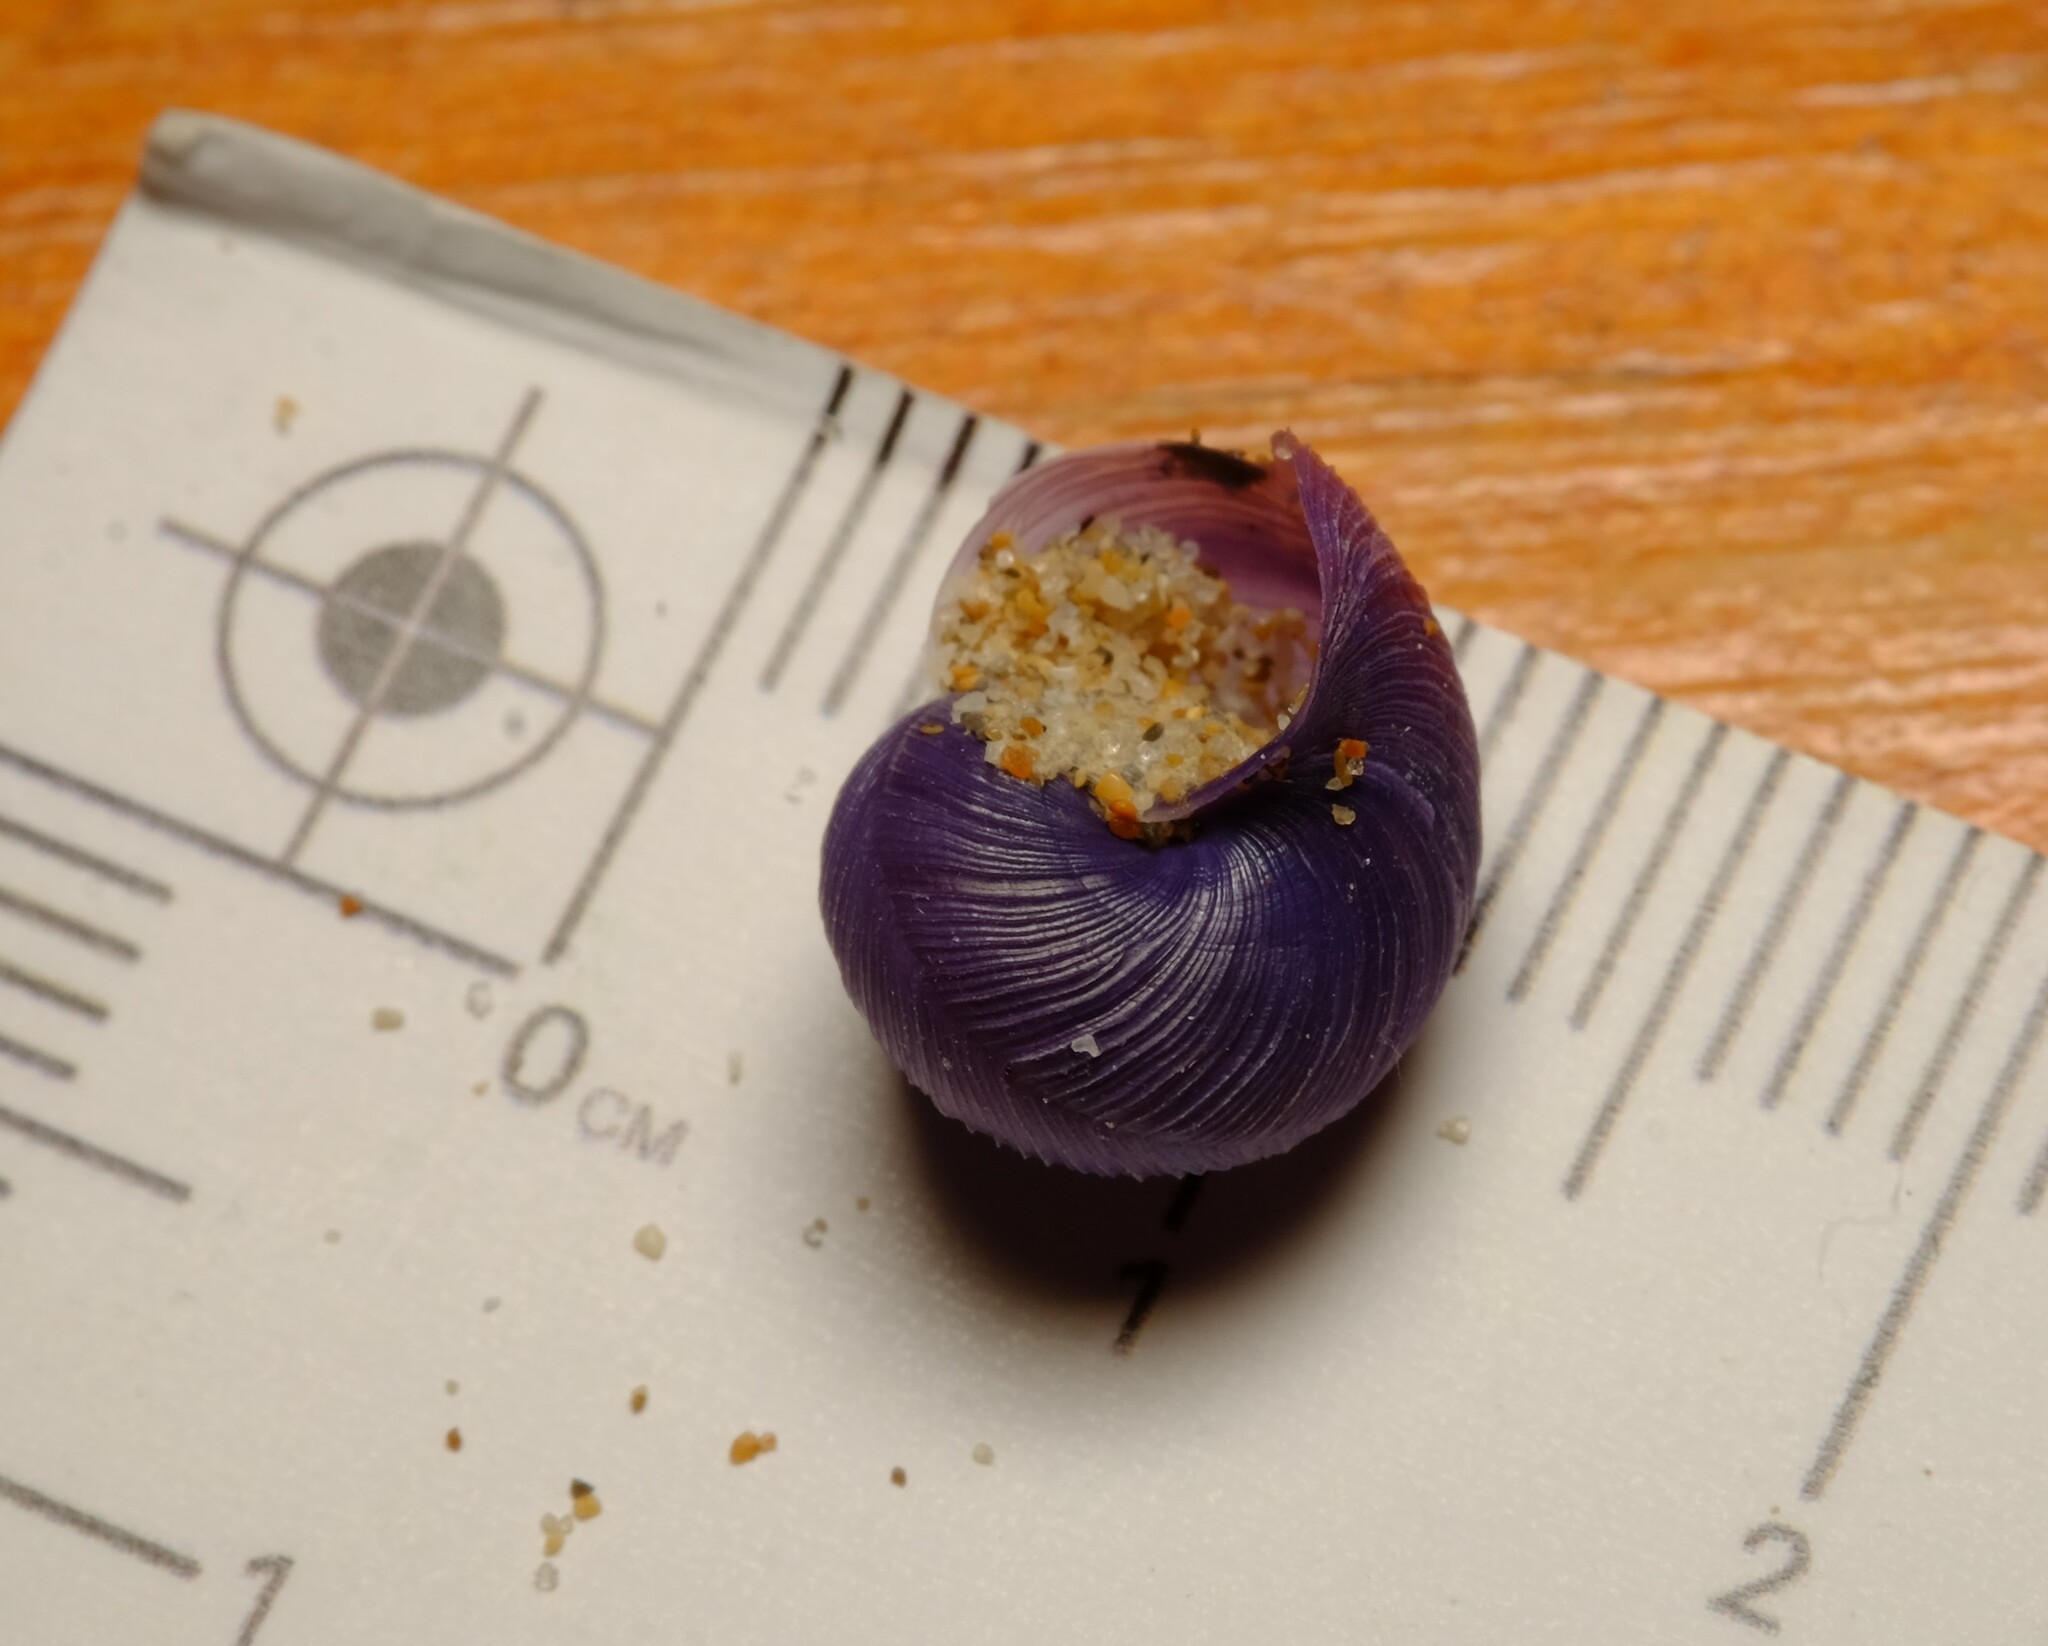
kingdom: Animalia
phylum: Mollusca
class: Gastropoda
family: Epitoniidae
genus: Janthina
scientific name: Janthina exigua
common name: Dwarf janthina
